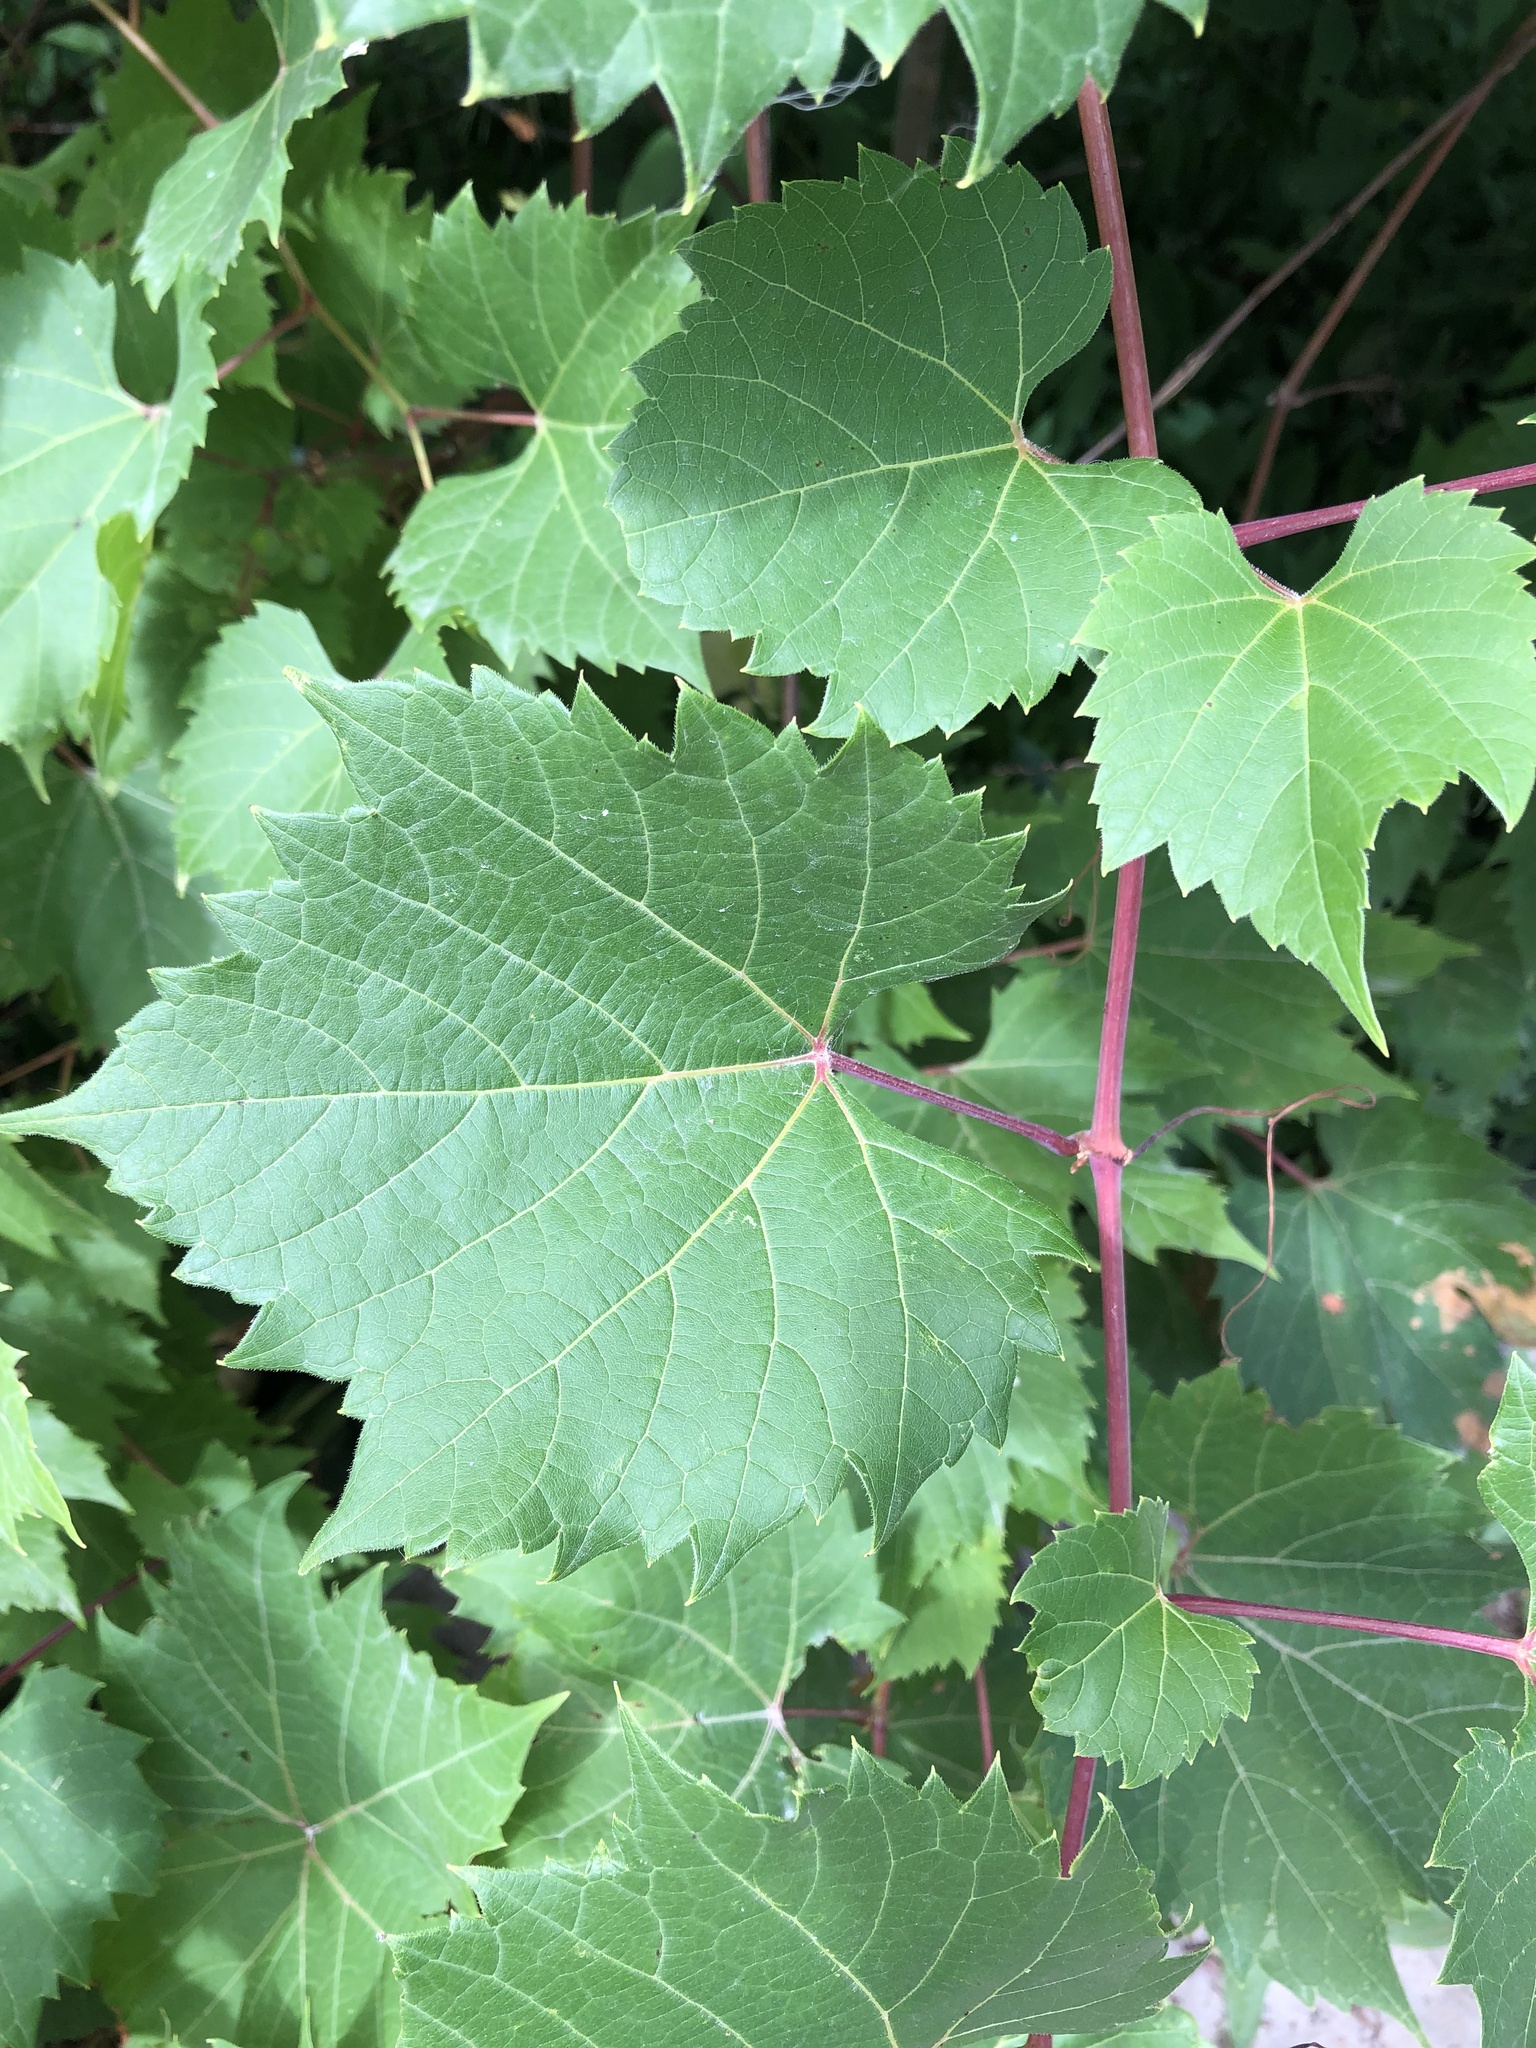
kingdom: Plantae
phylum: Tracheophyta
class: Magnoliopsida
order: Vitales
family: Vitaceae
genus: Vitis
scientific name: Vitis riparia
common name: Frost grape
